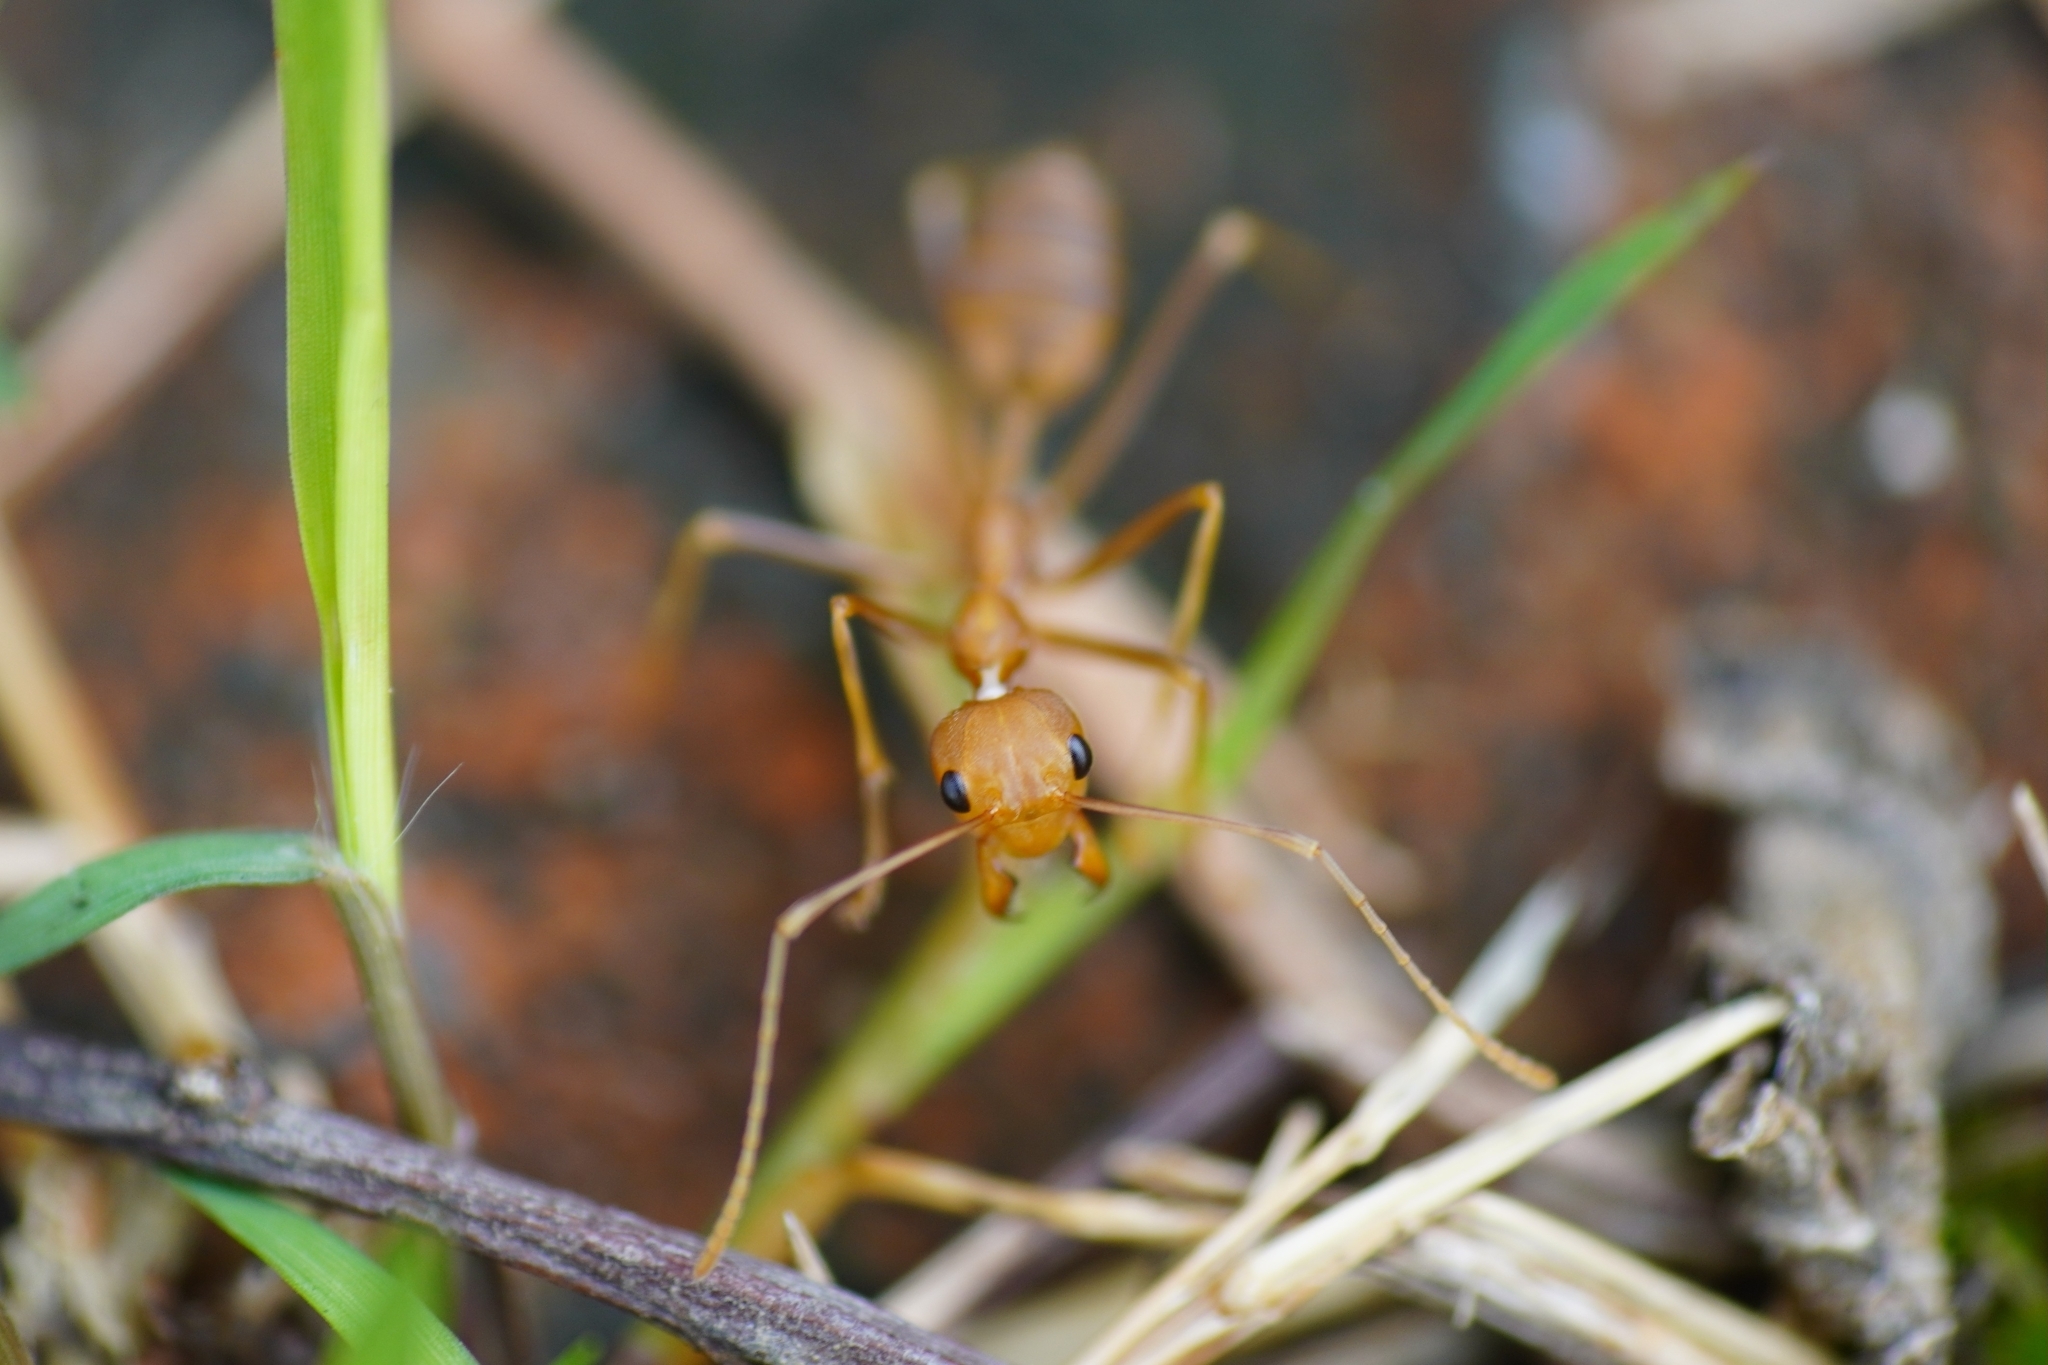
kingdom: Animalia
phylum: Arthropoda
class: Insecta
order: Hymenoptera
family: Formicidae
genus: Oecophylla
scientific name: Oecophylla smaragdina
